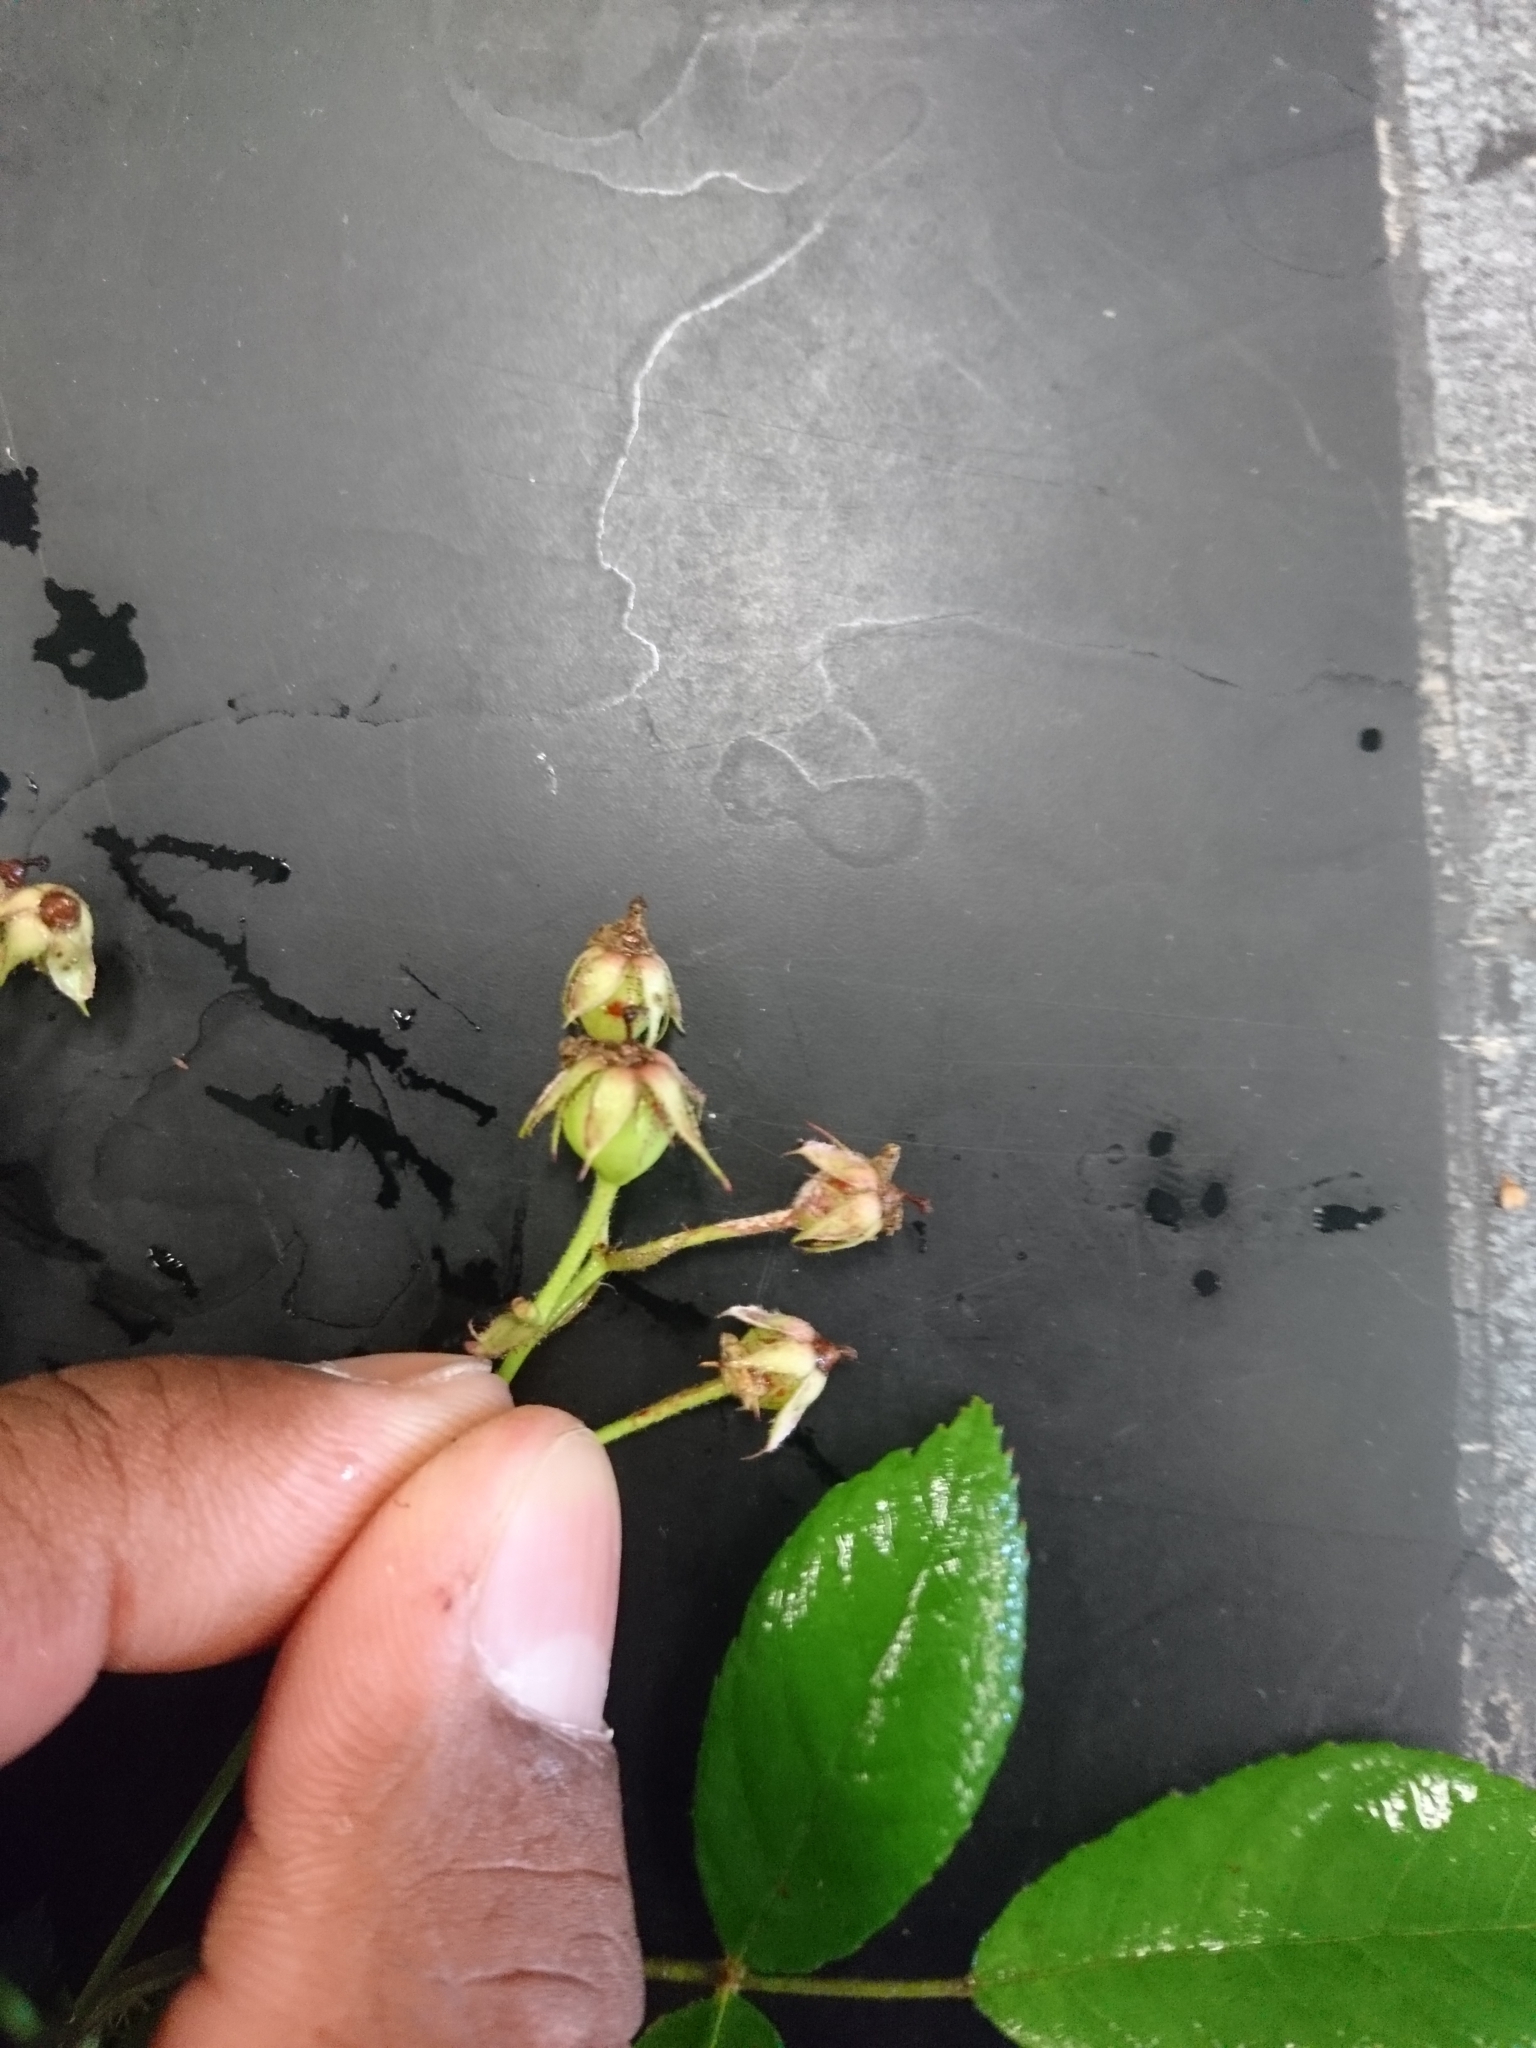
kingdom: Plantae
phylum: Tracheophyta
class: Magnoliopsida
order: Rosales
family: Rosaceae
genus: Rosa
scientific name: Rosa multiflora
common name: Multiflora rose
